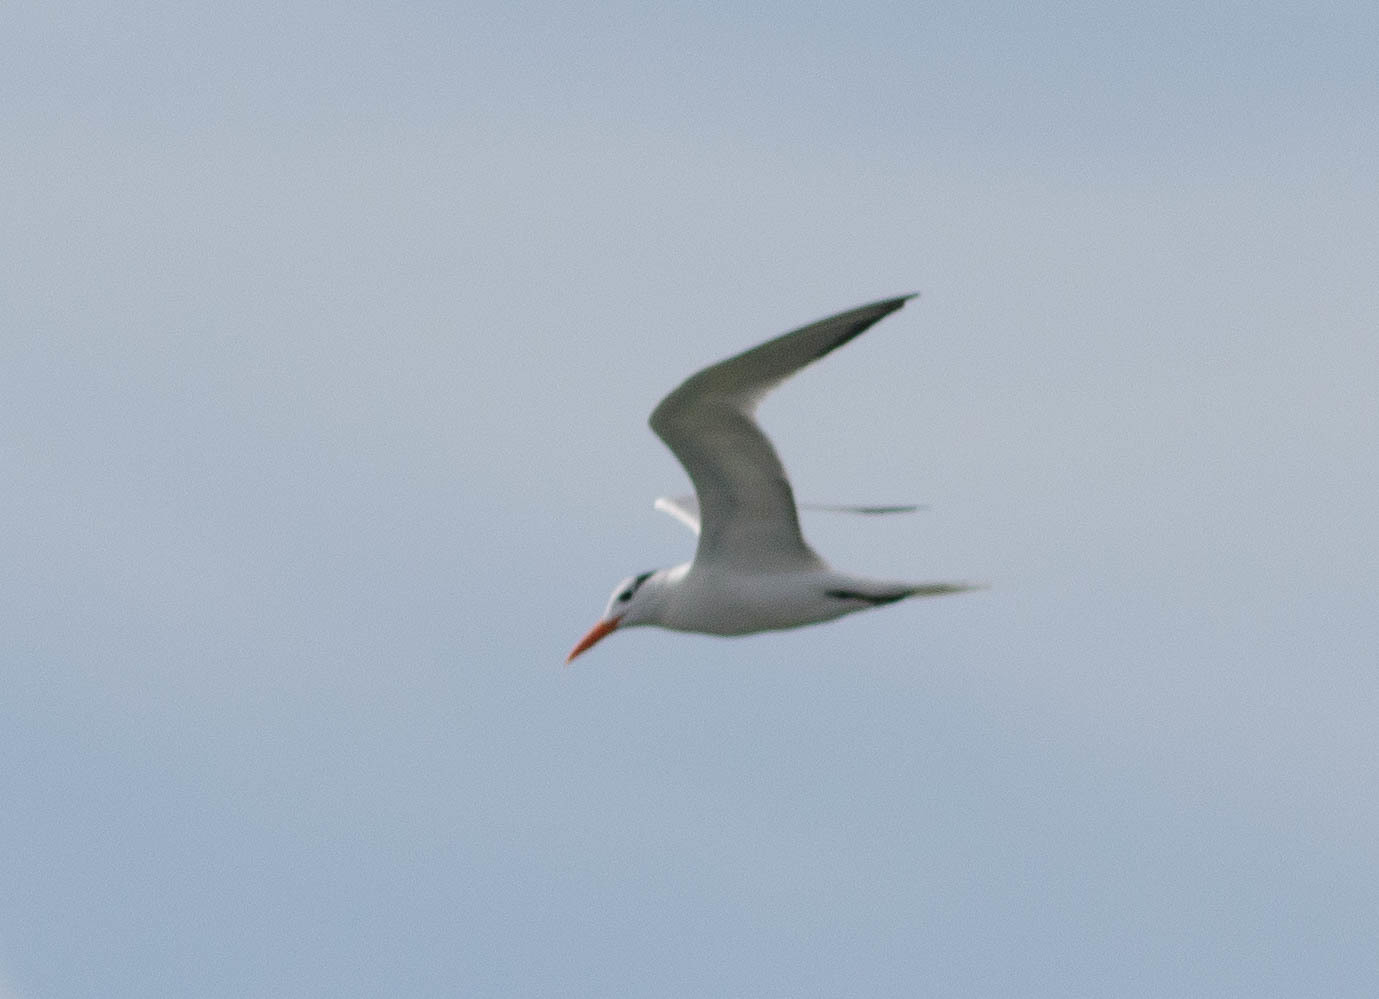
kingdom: Animalia
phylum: Chordata
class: Aves
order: Charadriiformes
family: Laridae
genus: Thalasseus
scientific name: Thalasseus maximus
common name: Royal tern
